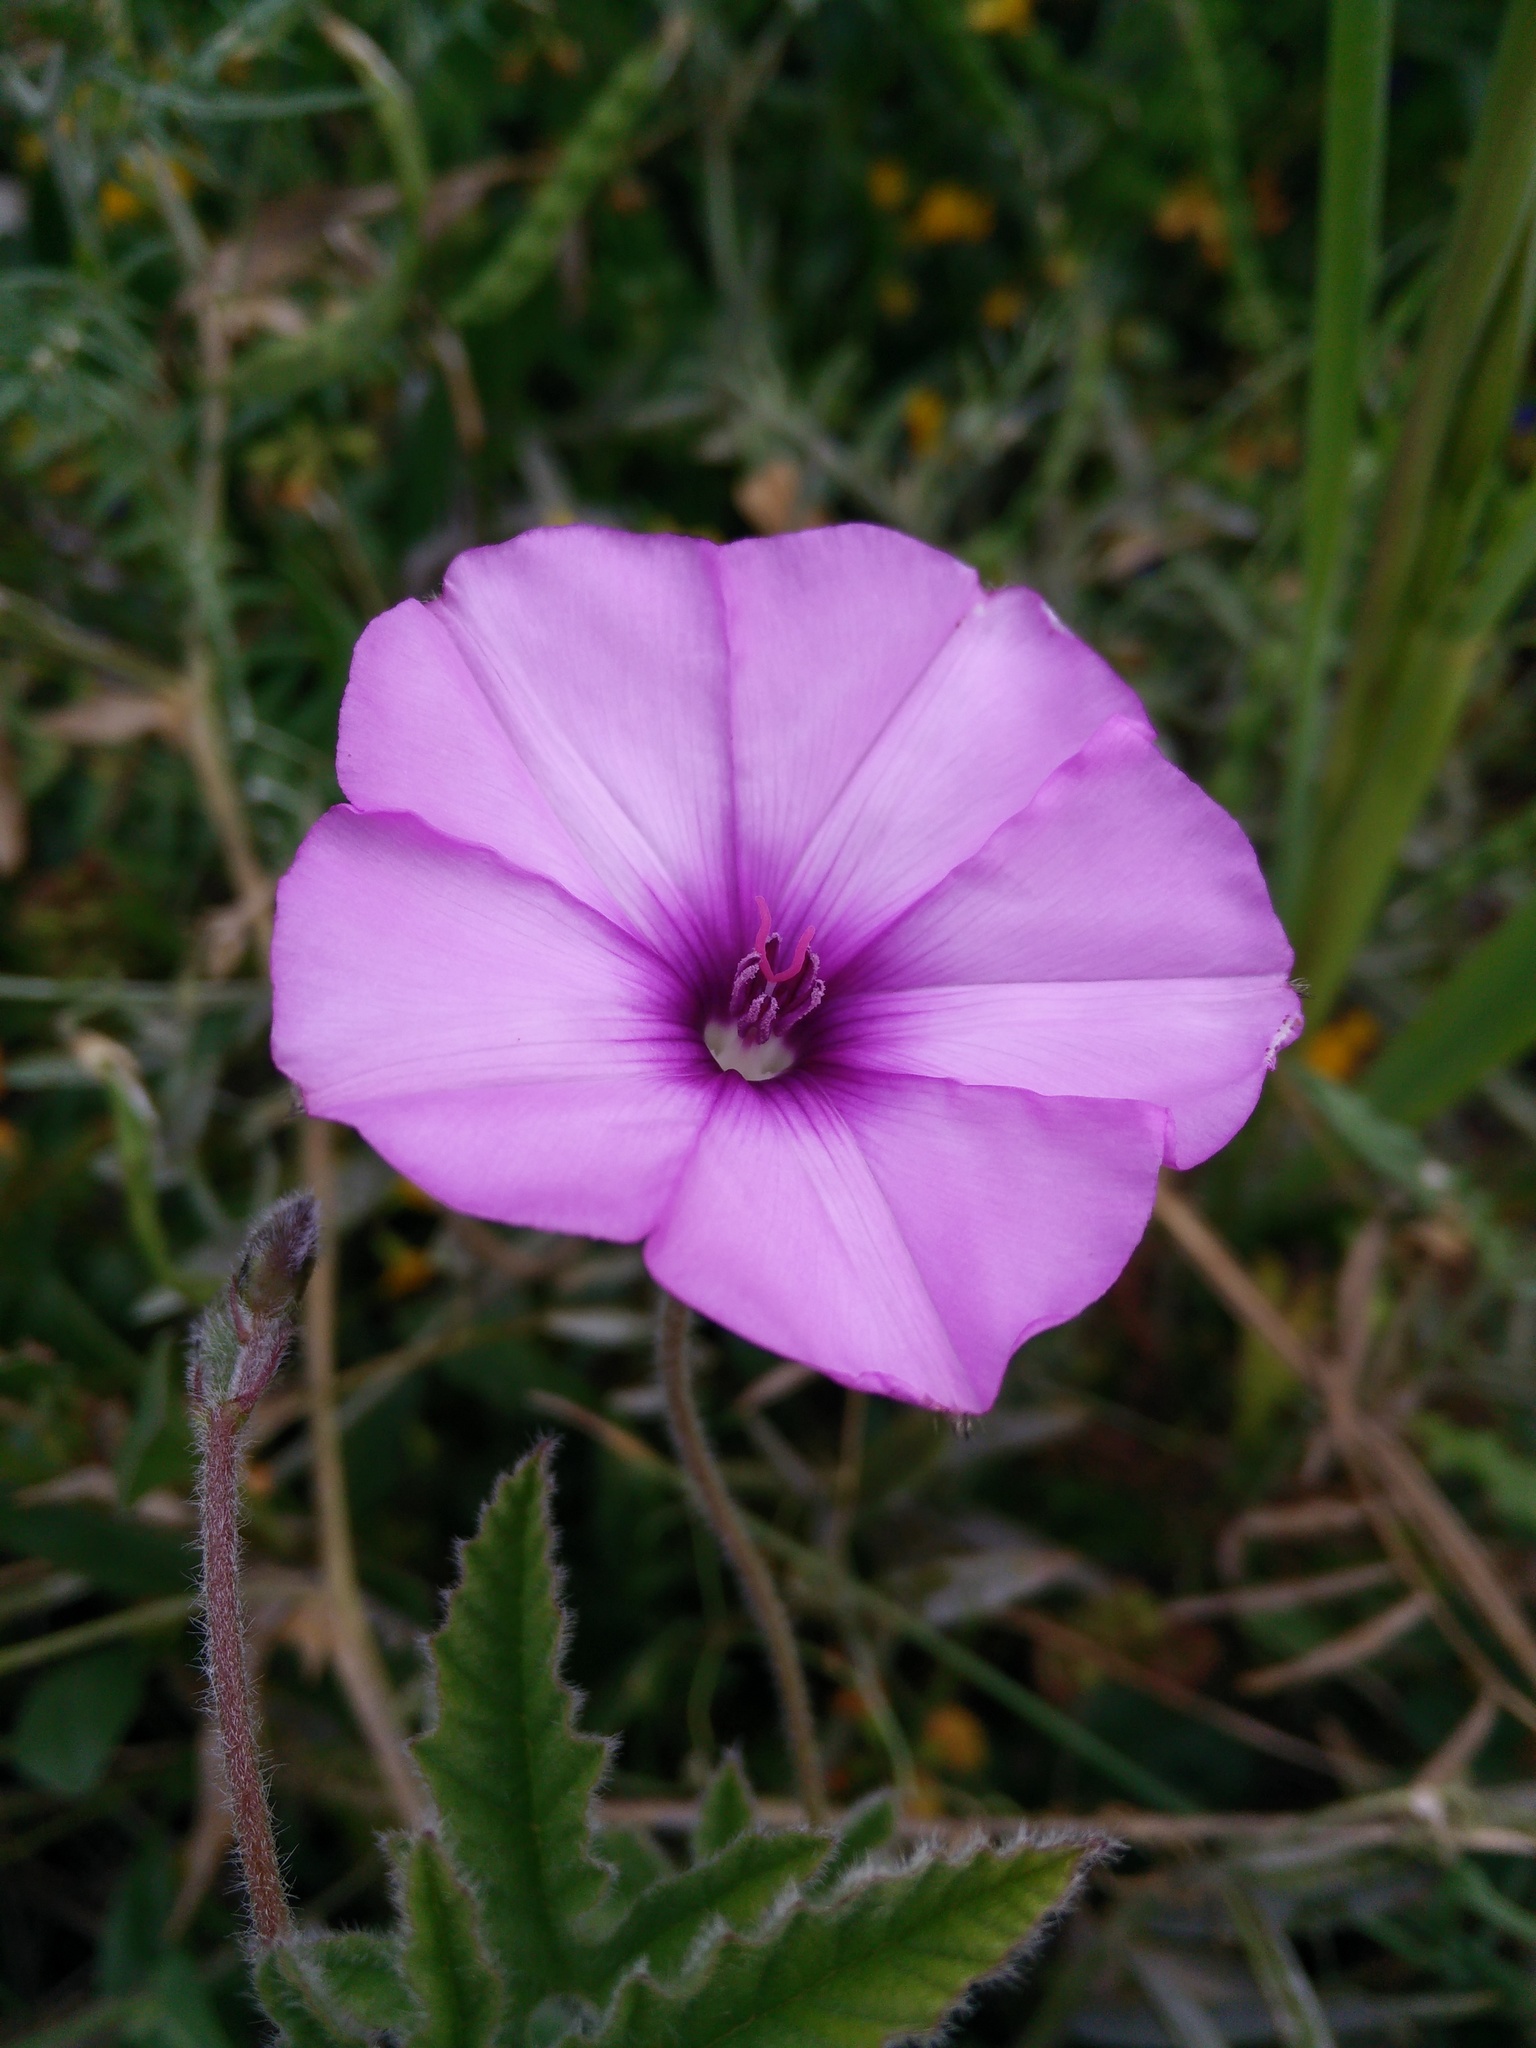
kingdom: Plantae
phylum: Tracheophyta
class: Magnoliopsida
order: Solanales
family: Convolvulaceae
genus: Convolvulus
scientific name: Convolvulus althaeoides
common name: Mallow bindweed
